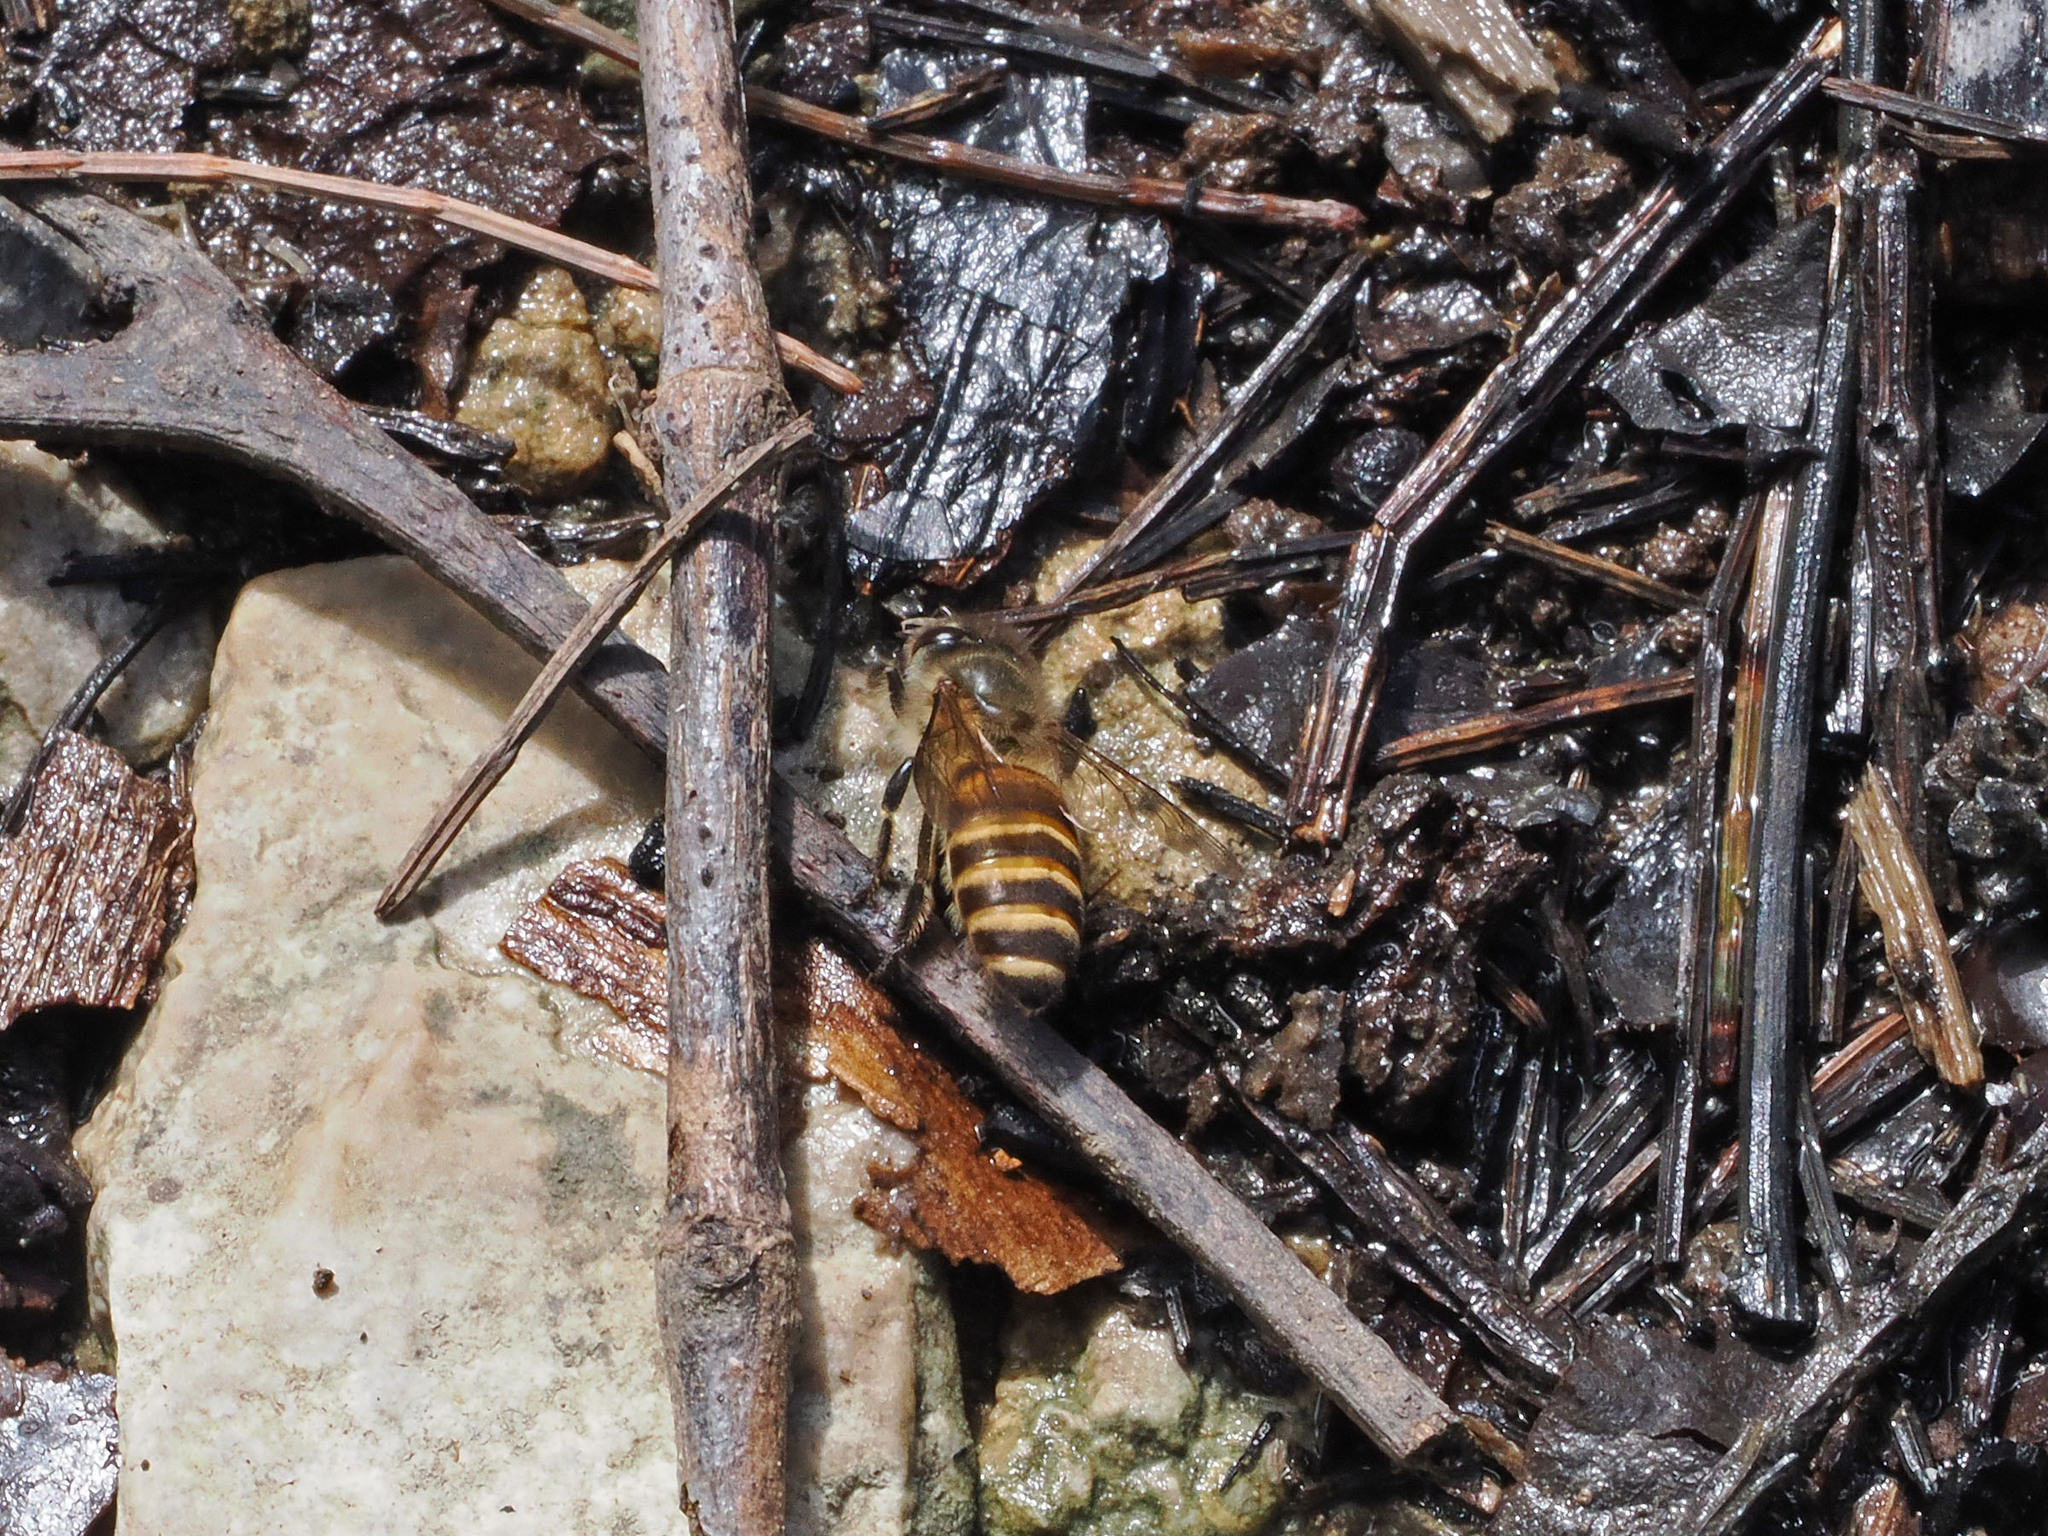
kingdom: Animalia
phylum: Arthropoda
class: Insecta
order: Hymenoptera
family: Apidae
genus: Apis
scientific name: Apis cerana
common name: Honey bee
